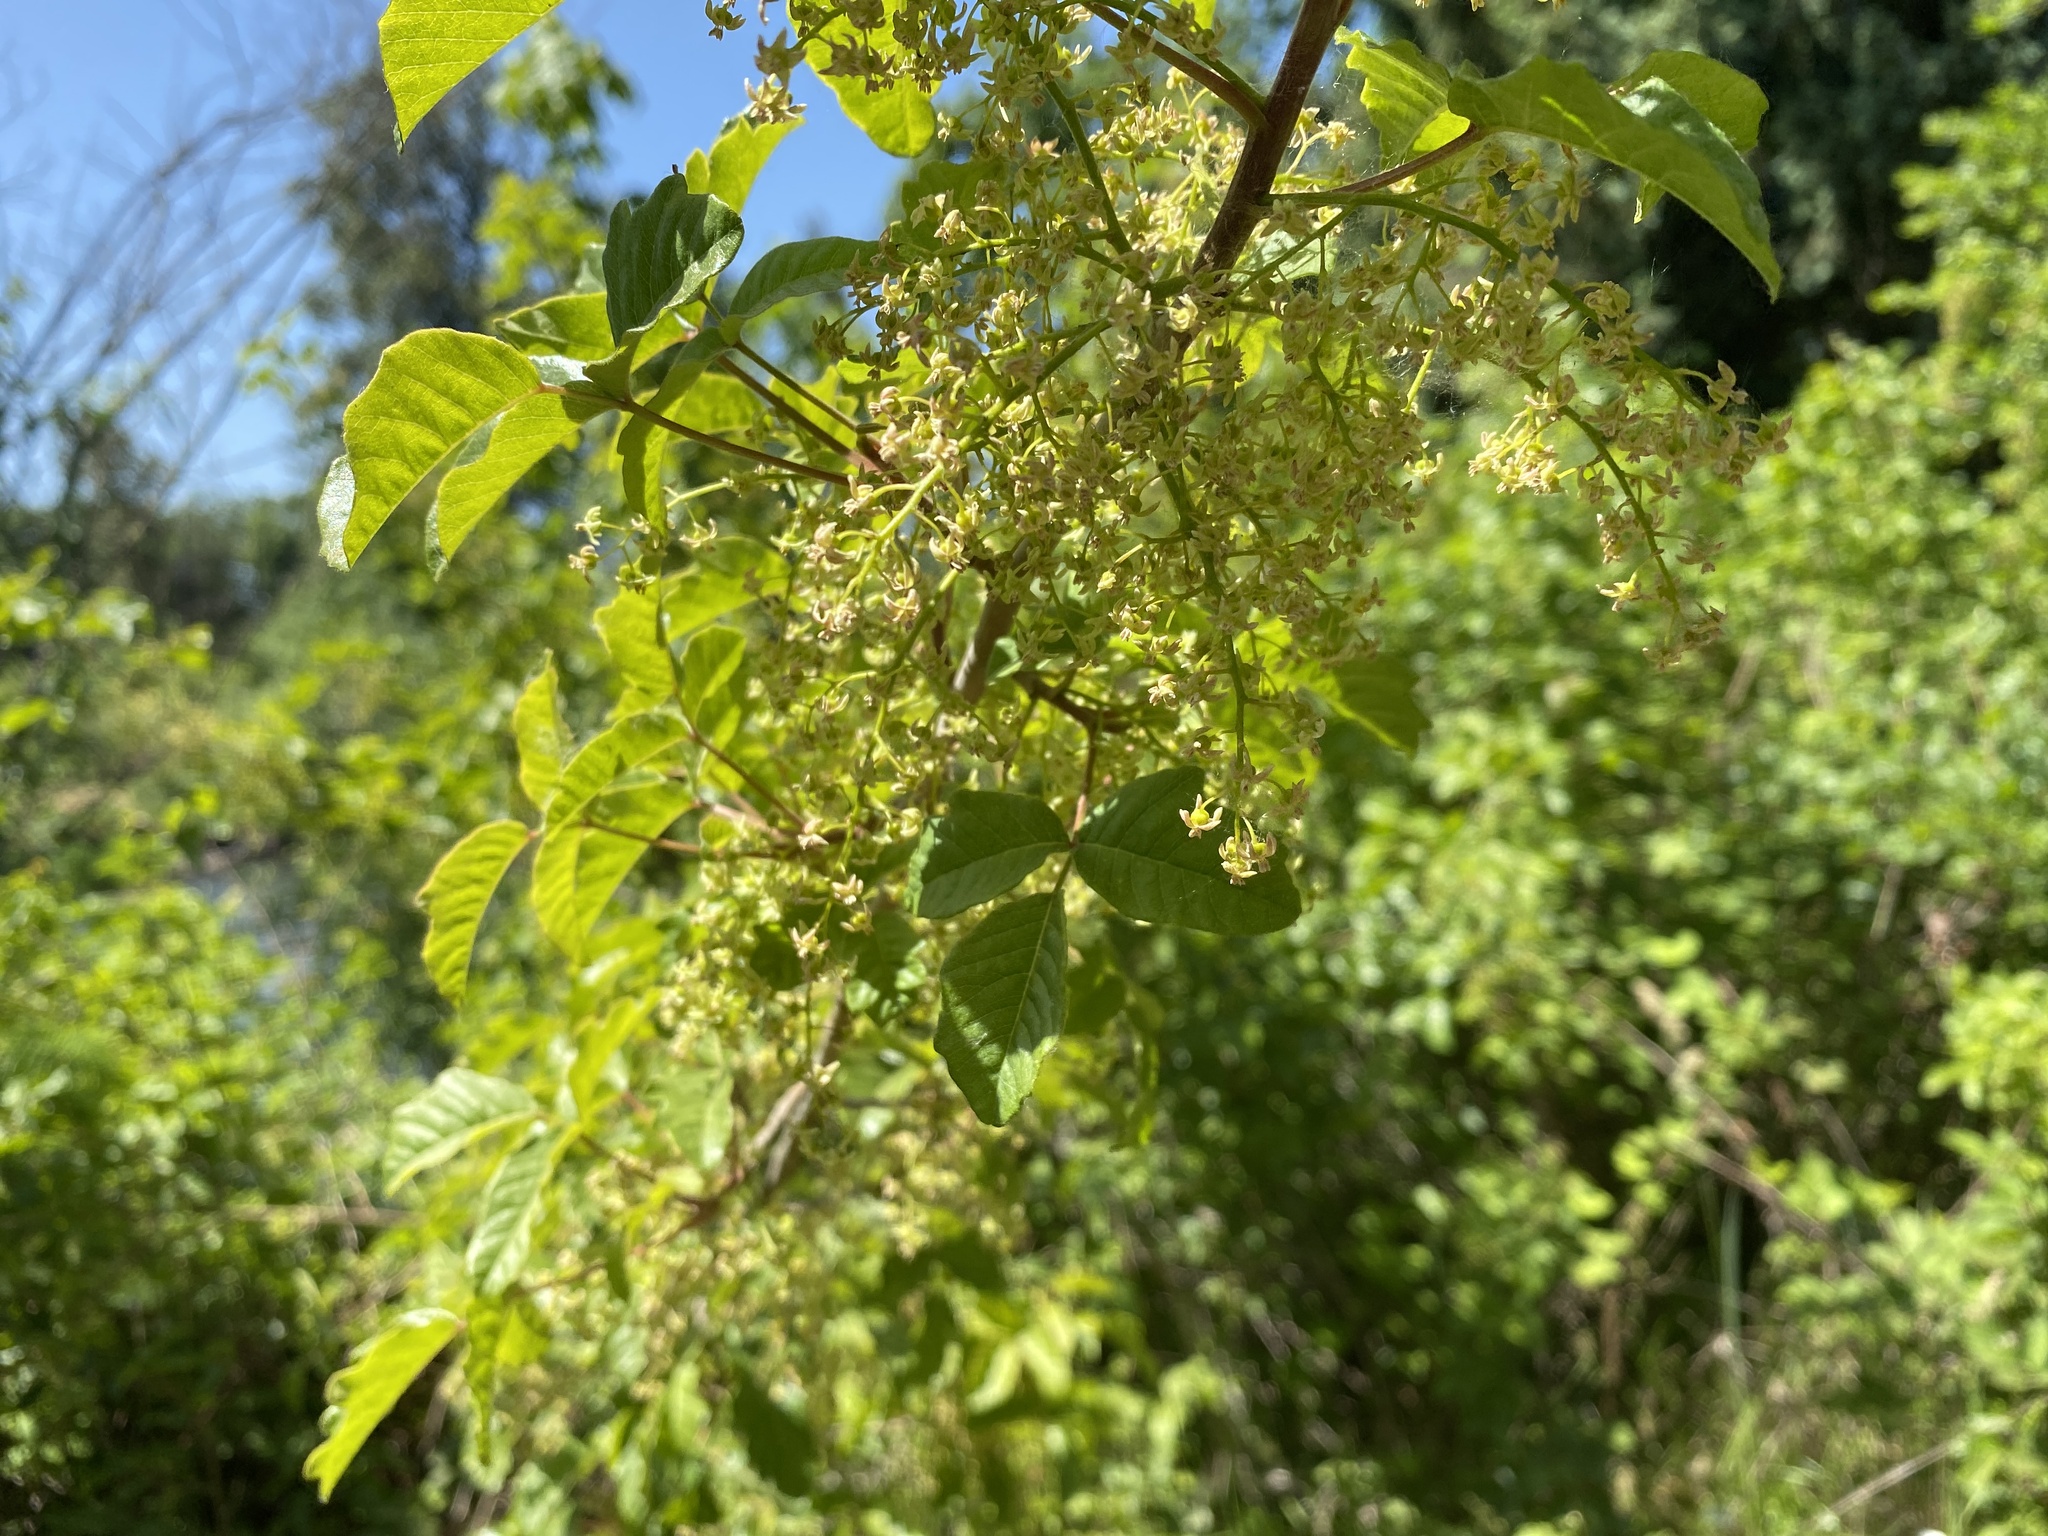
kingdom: Plantae
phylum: Tracheophyta
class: Magnoliopsida
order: Sapindales
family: Anacardiaceae
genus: Toxicodendron
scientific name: Toxicodendron diversilobum
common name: Pacific poison-oak
